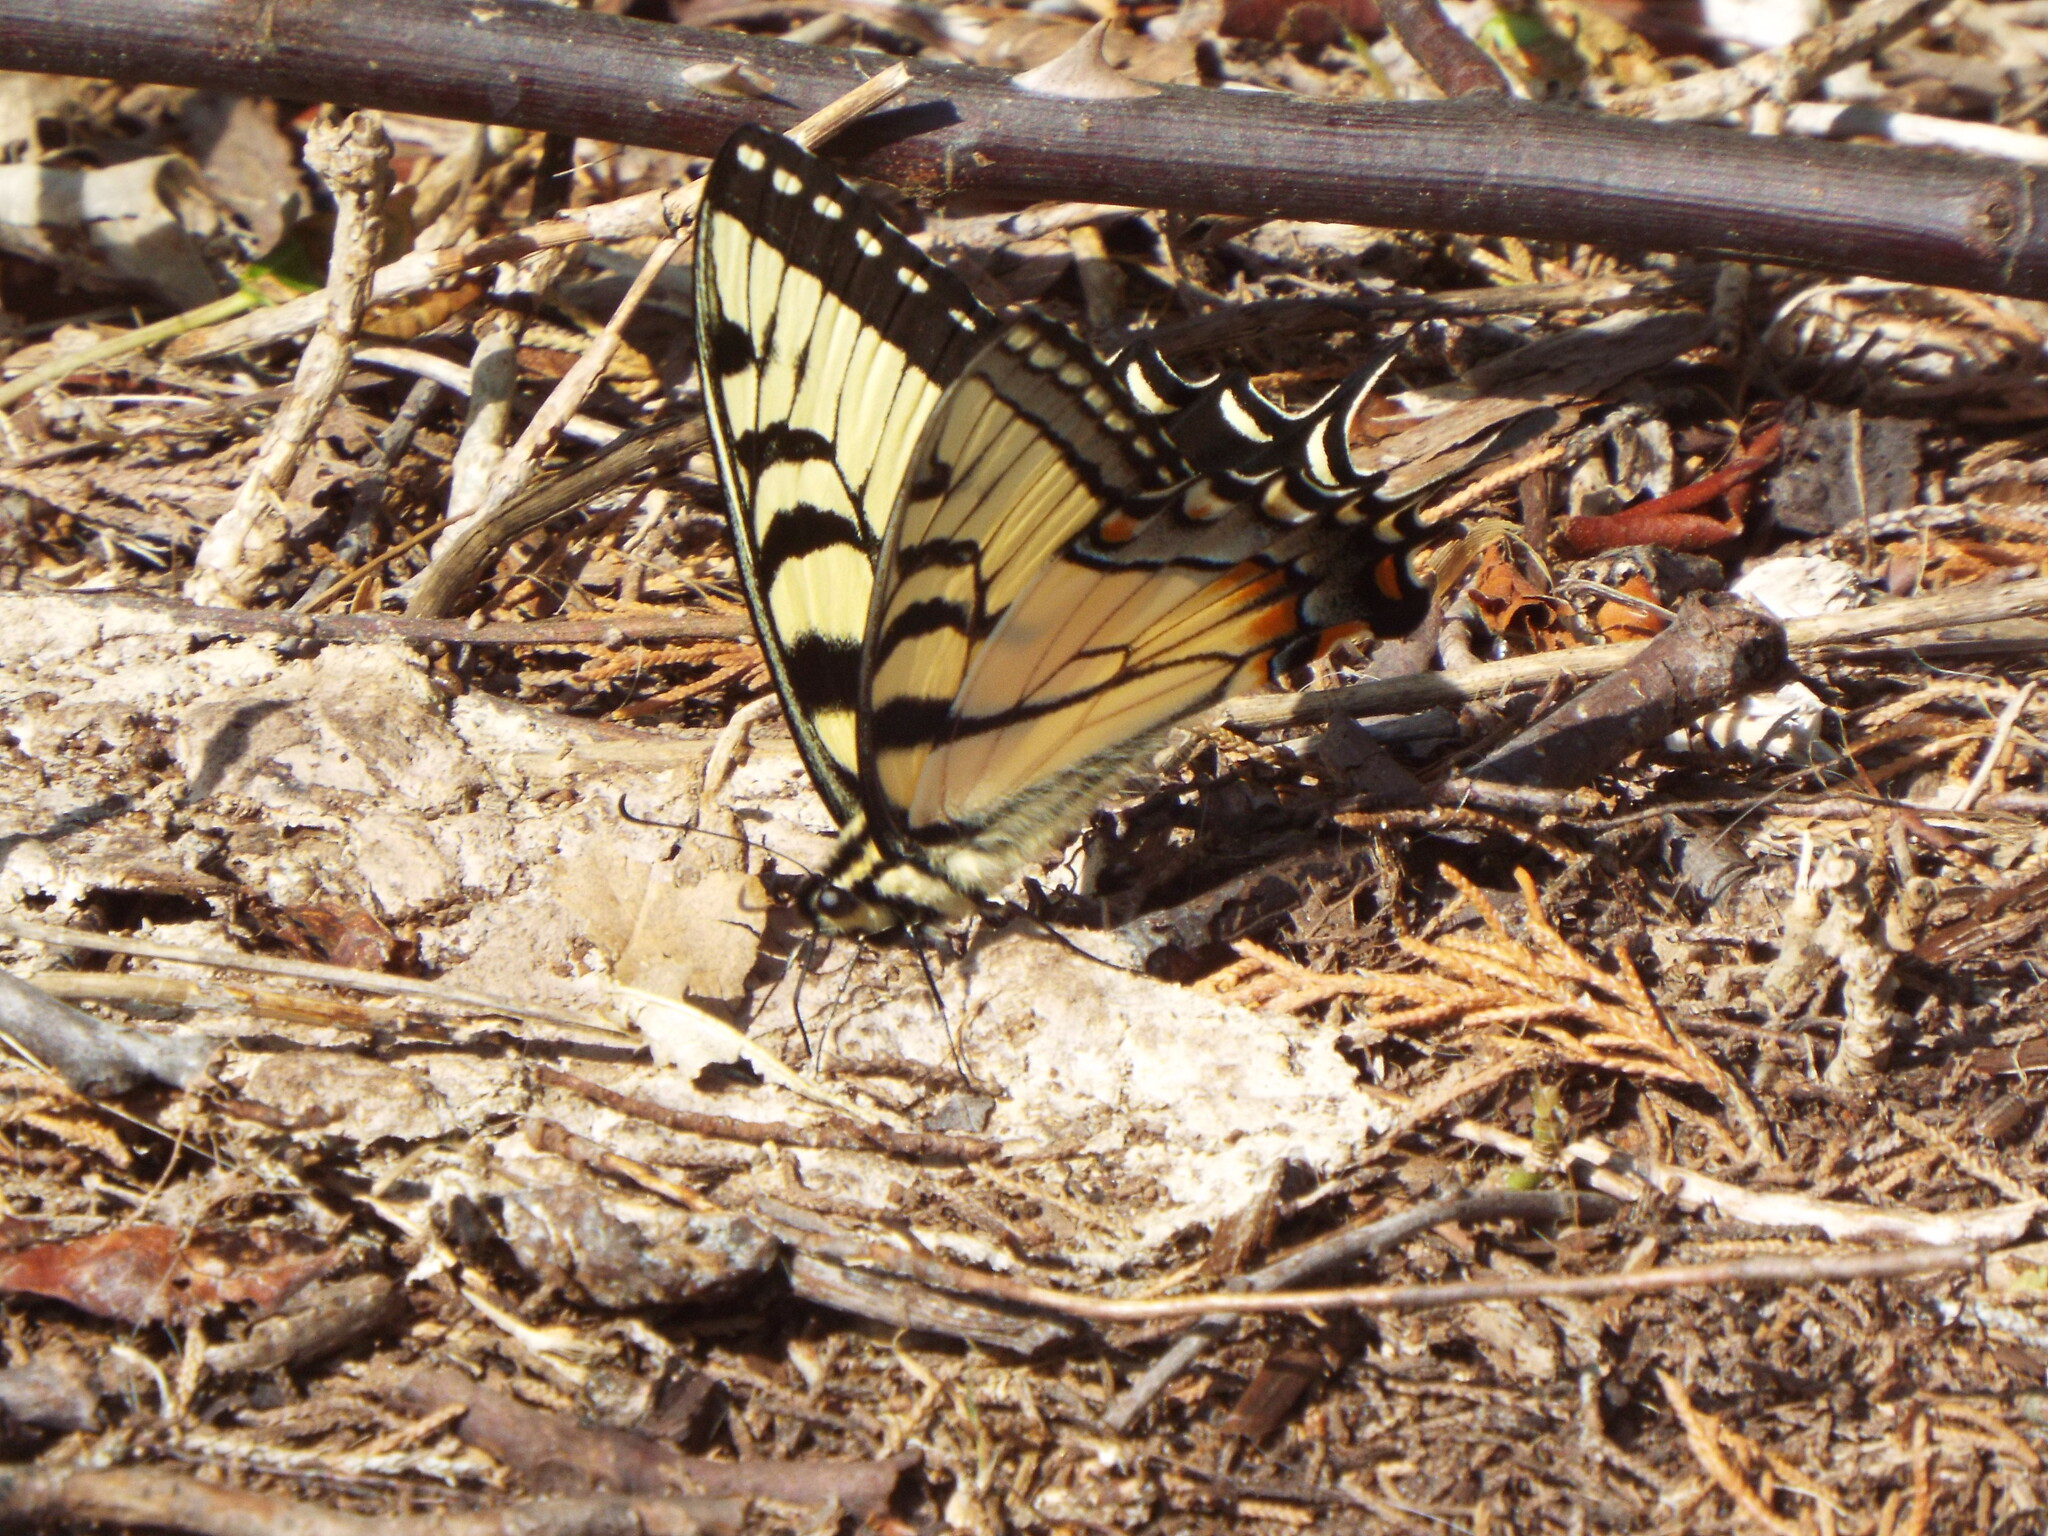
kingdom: Animalia
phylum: Arthropoda
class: Insecta
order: Lepidoptera
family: Papilionidae
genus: Papilio
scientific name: Papilio glaucus
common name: Tiger swallowtail
